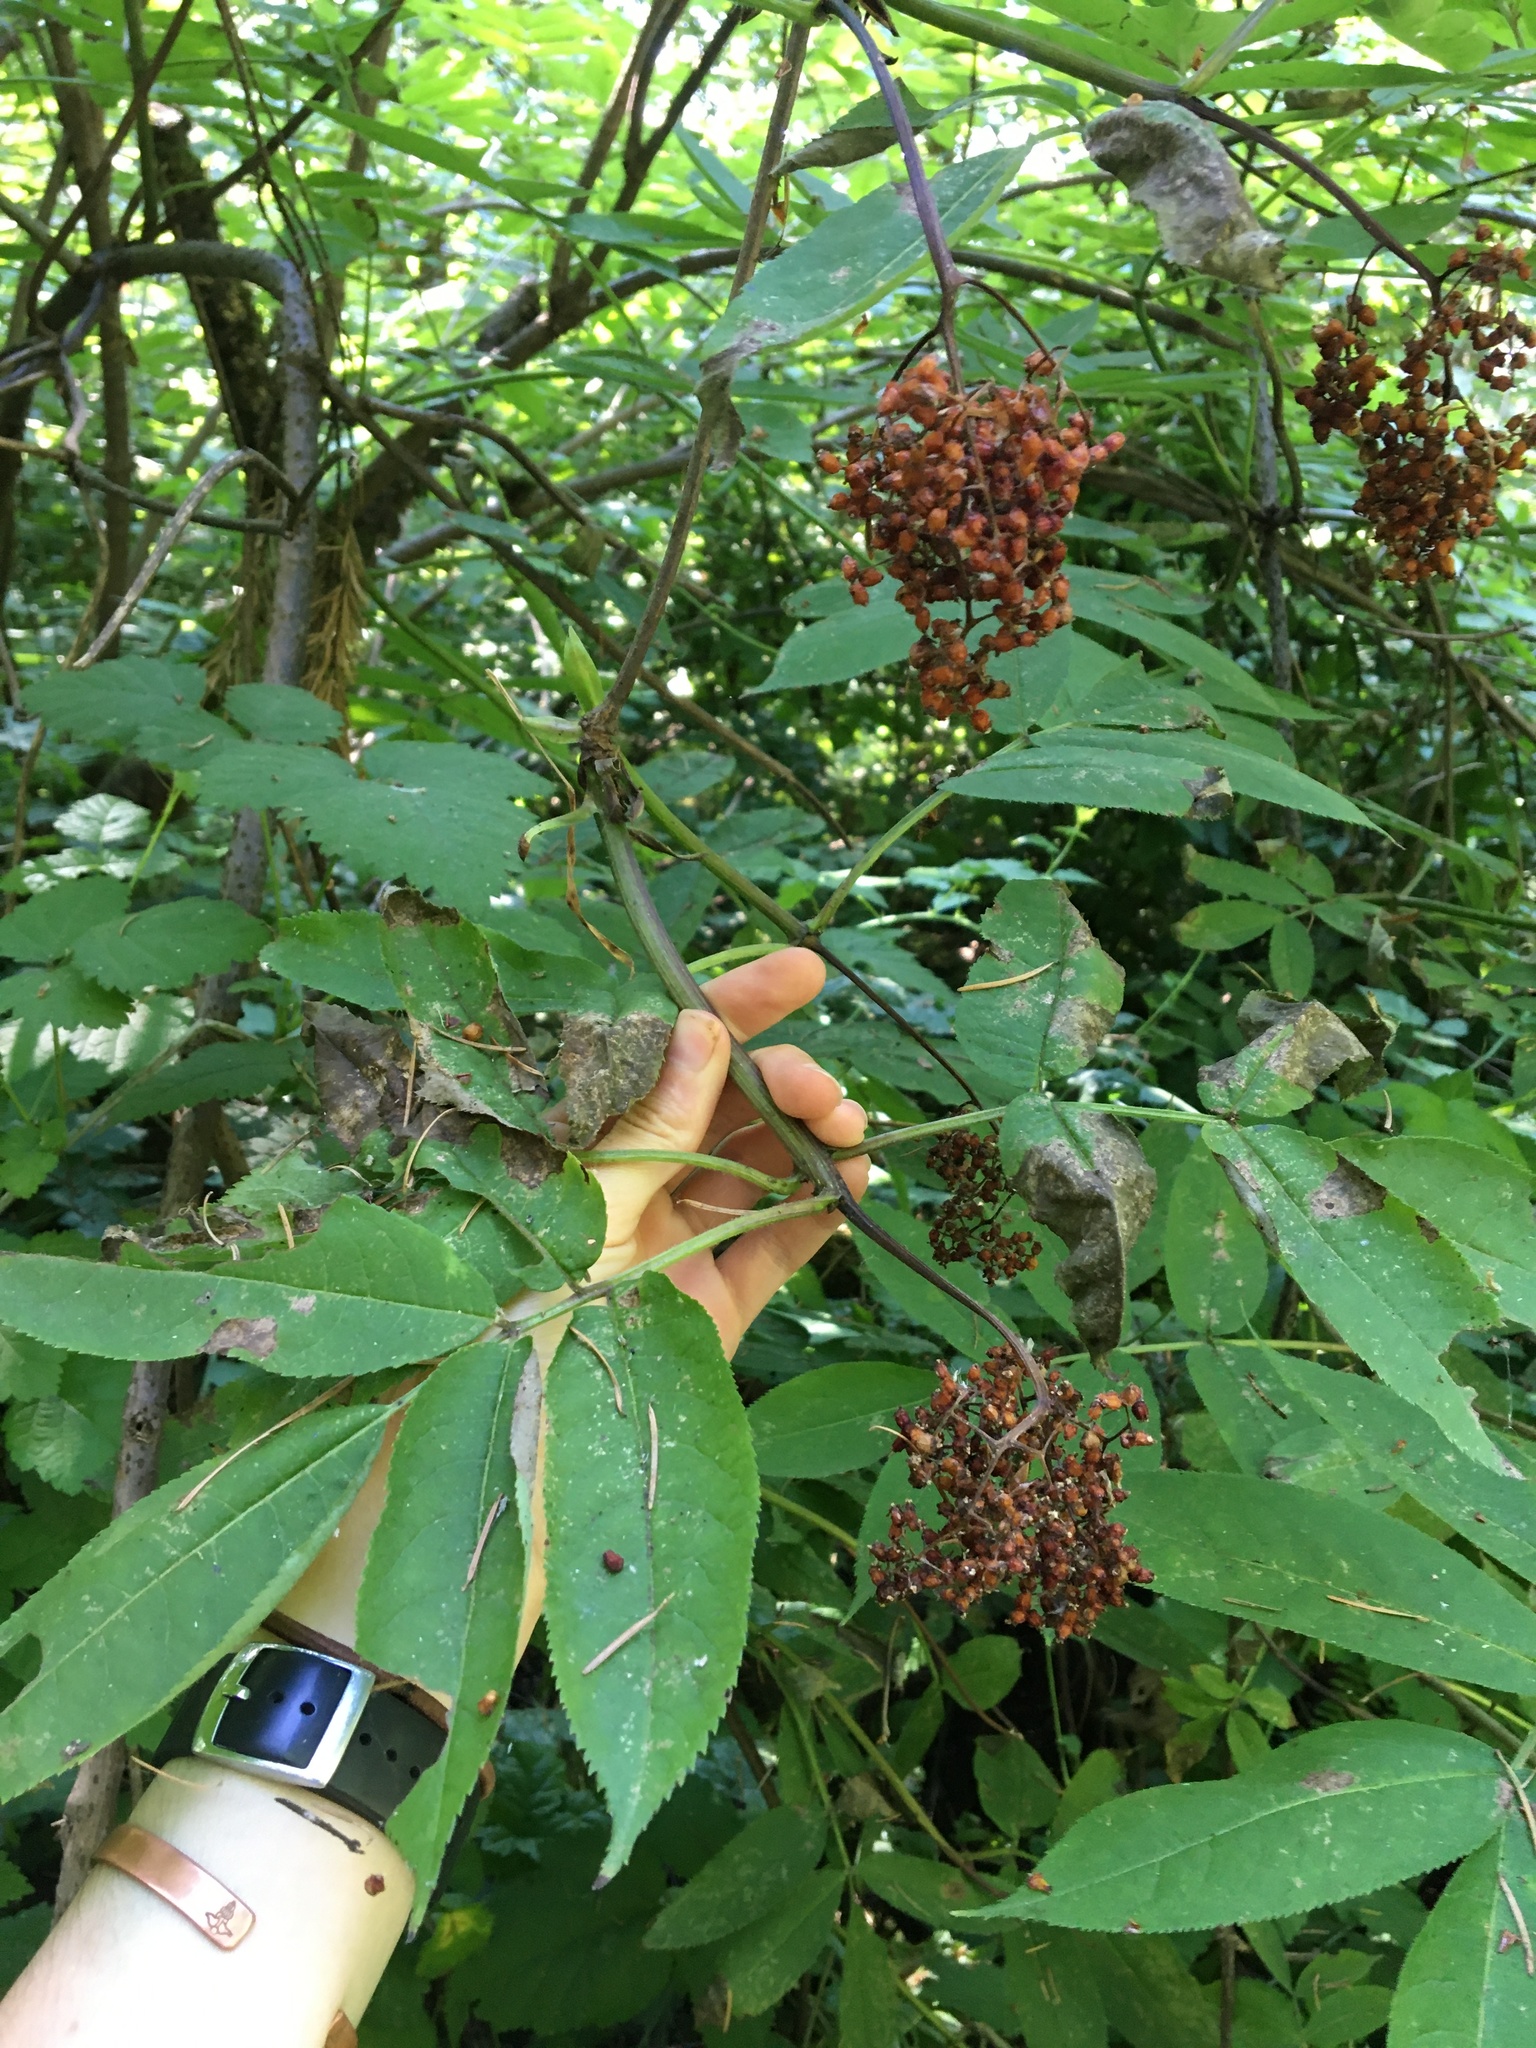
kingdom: Plantae
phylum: Tracheophyta
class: Magnoliopsida
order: Dipsacales
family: Viburnaceae
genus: Sambucus
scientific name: Sambucus racemosa
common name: Red-berried elder
